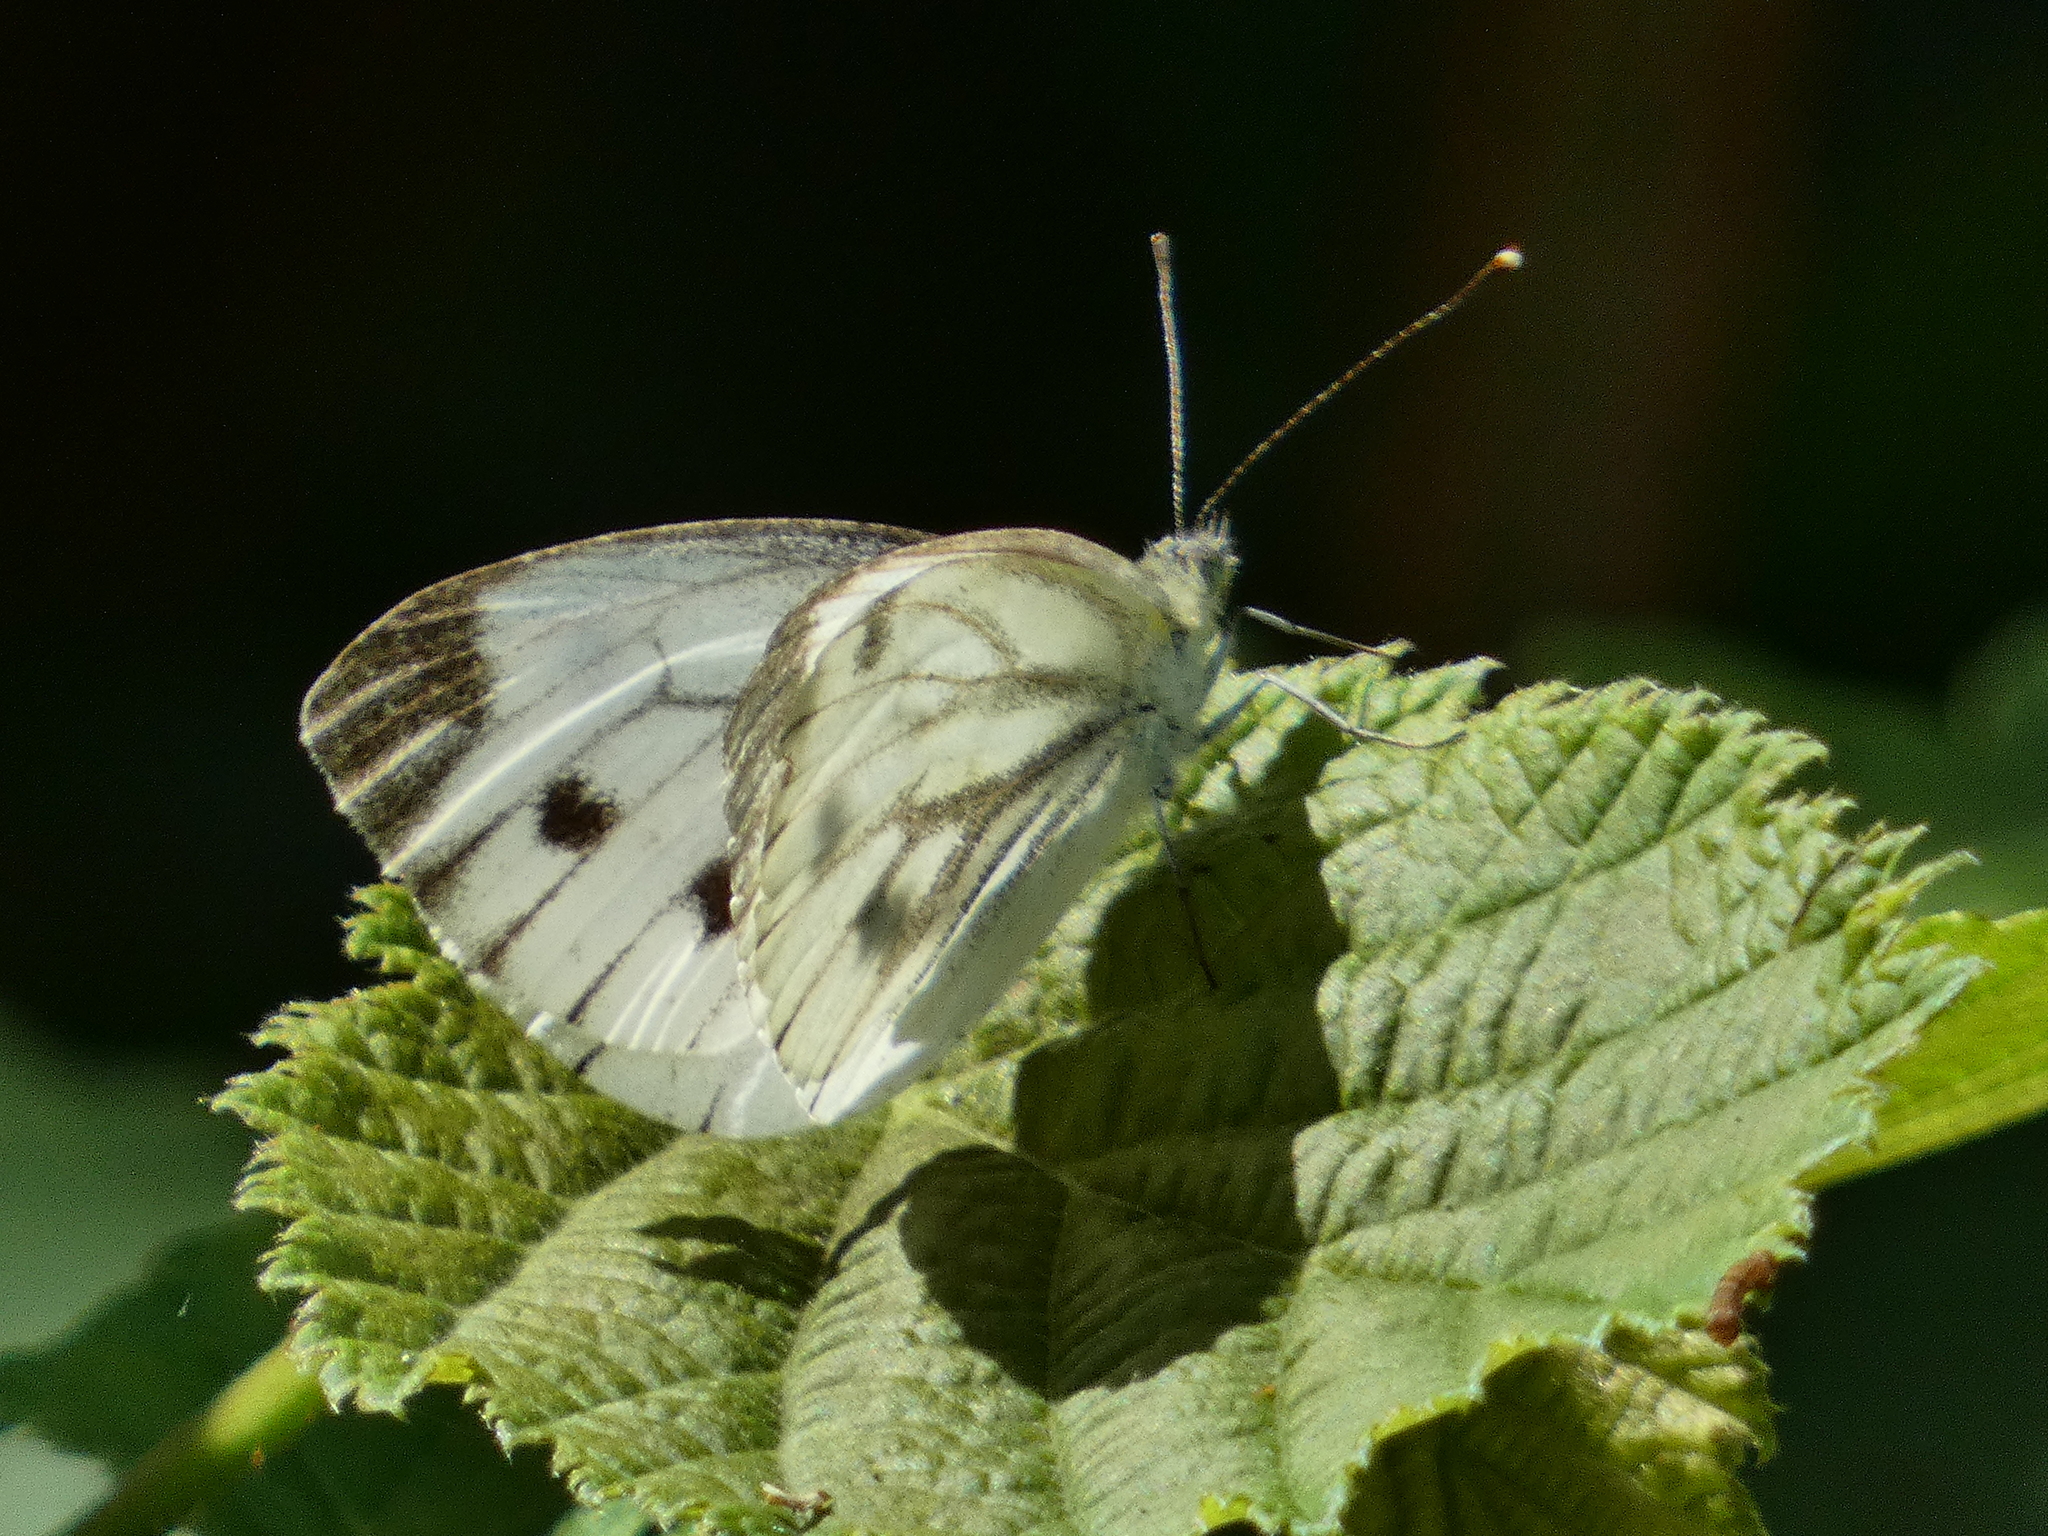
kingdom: Animalia
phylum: Arthropoda
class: Insecta
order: Lepidoptera
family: Pieridae
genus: Pieris
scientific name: Pieris napi
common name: Green-veined white
